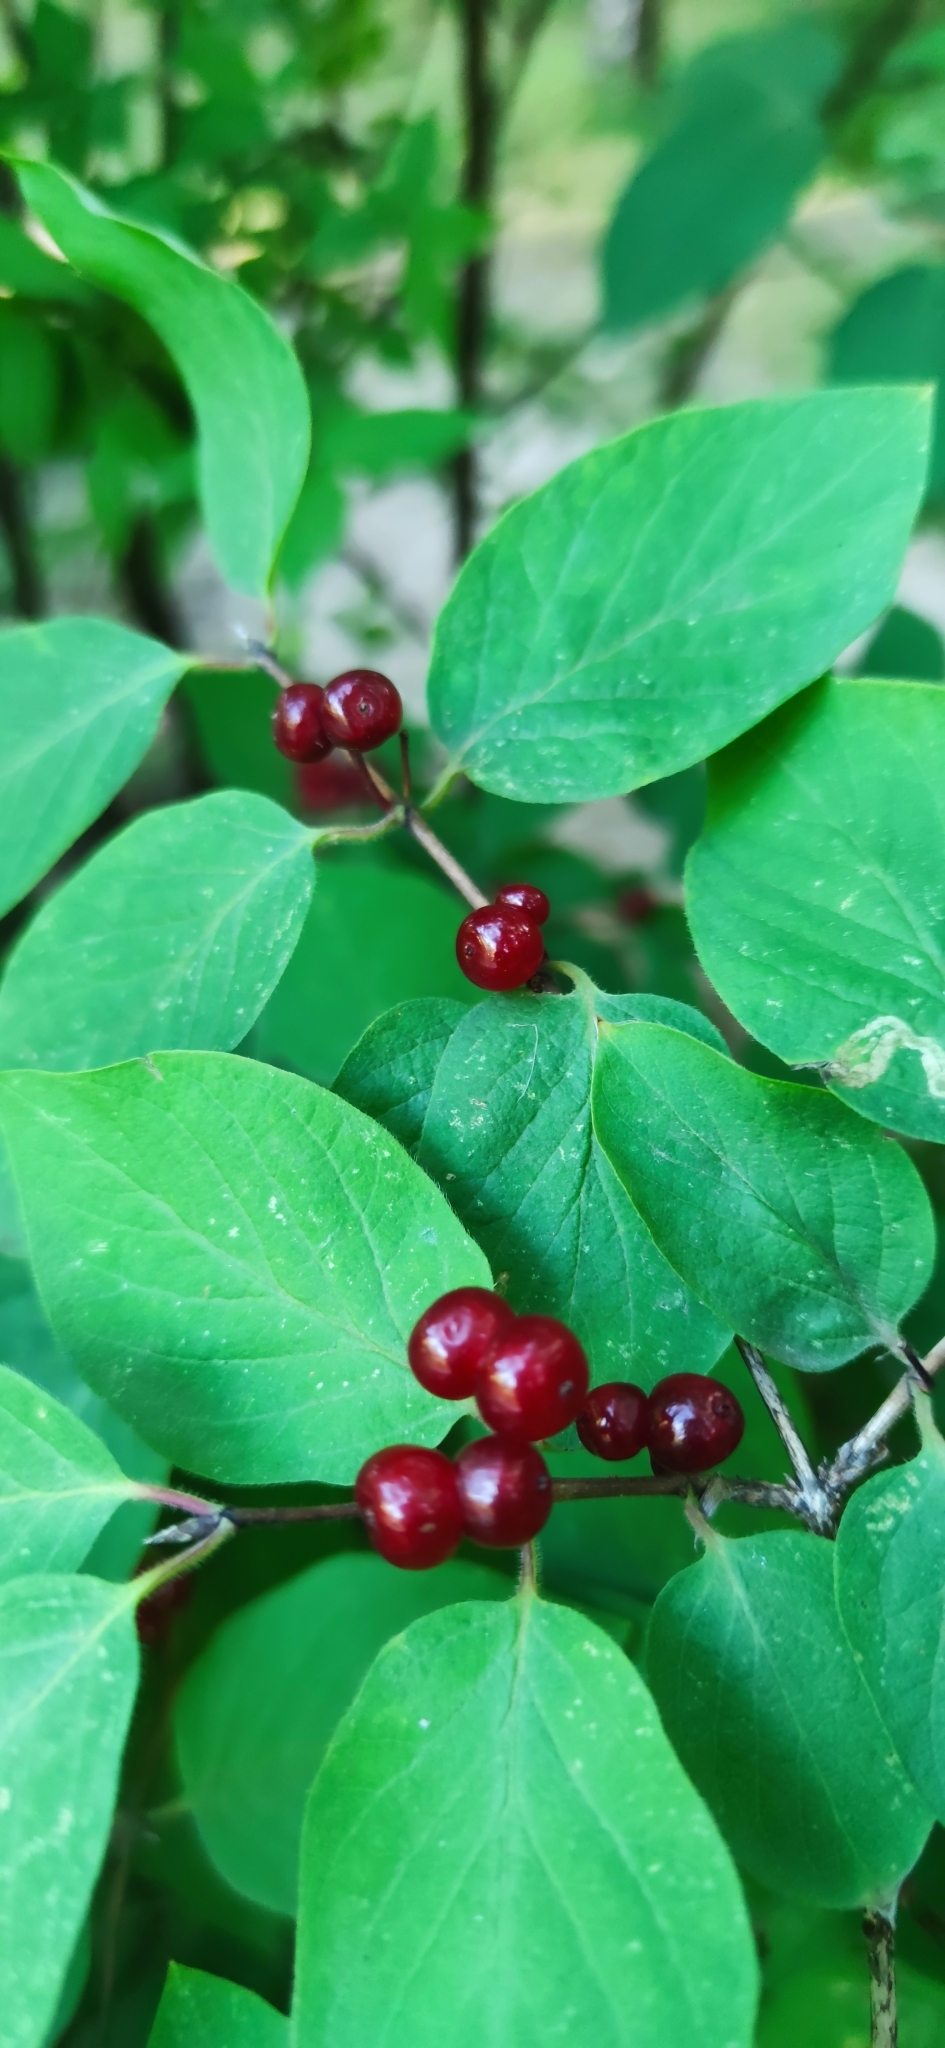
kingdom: Plantae
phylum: Tracheophyta
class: Magnoliopsida
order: Dipsacales
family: Caprifoliaceae
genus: Lonicera
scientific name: Lonicera xylosteum
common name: Fly honeysuckle
